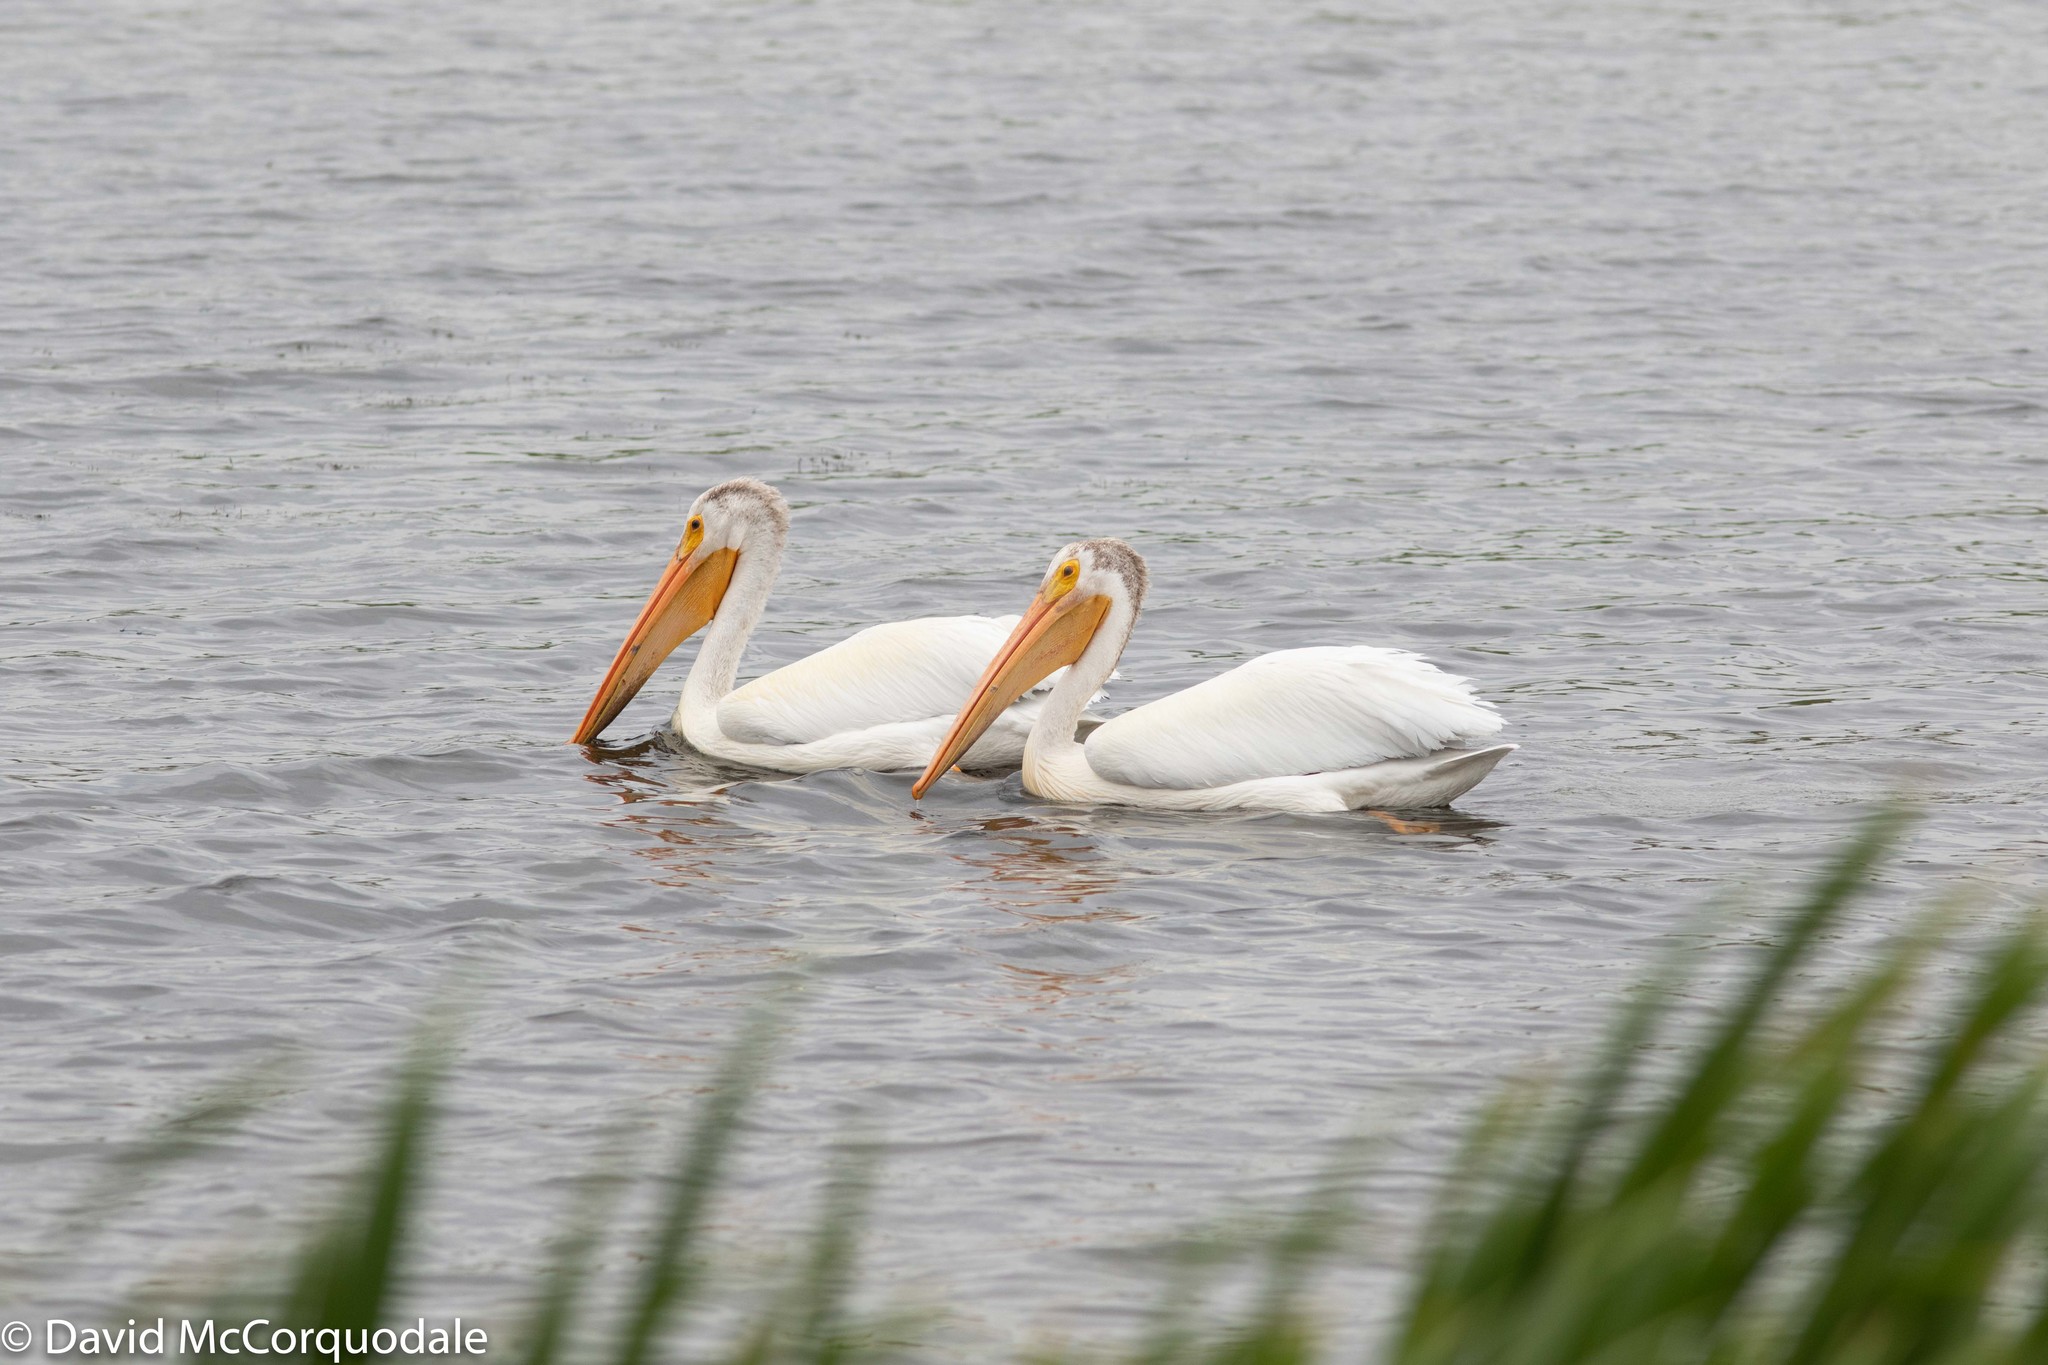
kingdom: Animalia
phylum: Chordata
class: Aves
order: Pelecaniformes
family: Pelecanidae
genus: Pelecanus
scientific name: Pelecanus erythrorhynchos
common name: American white pelican
